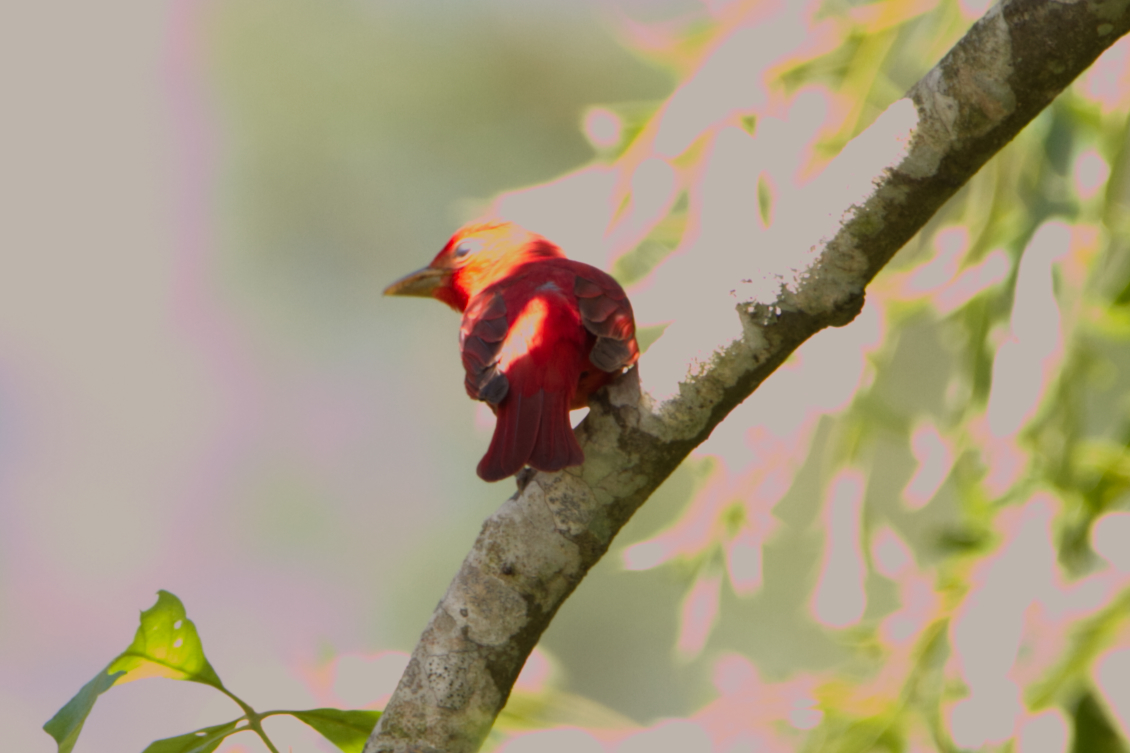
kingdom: Animalia
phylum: Chordata
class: Aves
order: Passeriformes
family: Cardinalidae
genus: Piranga
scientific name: Piranga rubra
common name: Summer tanager
